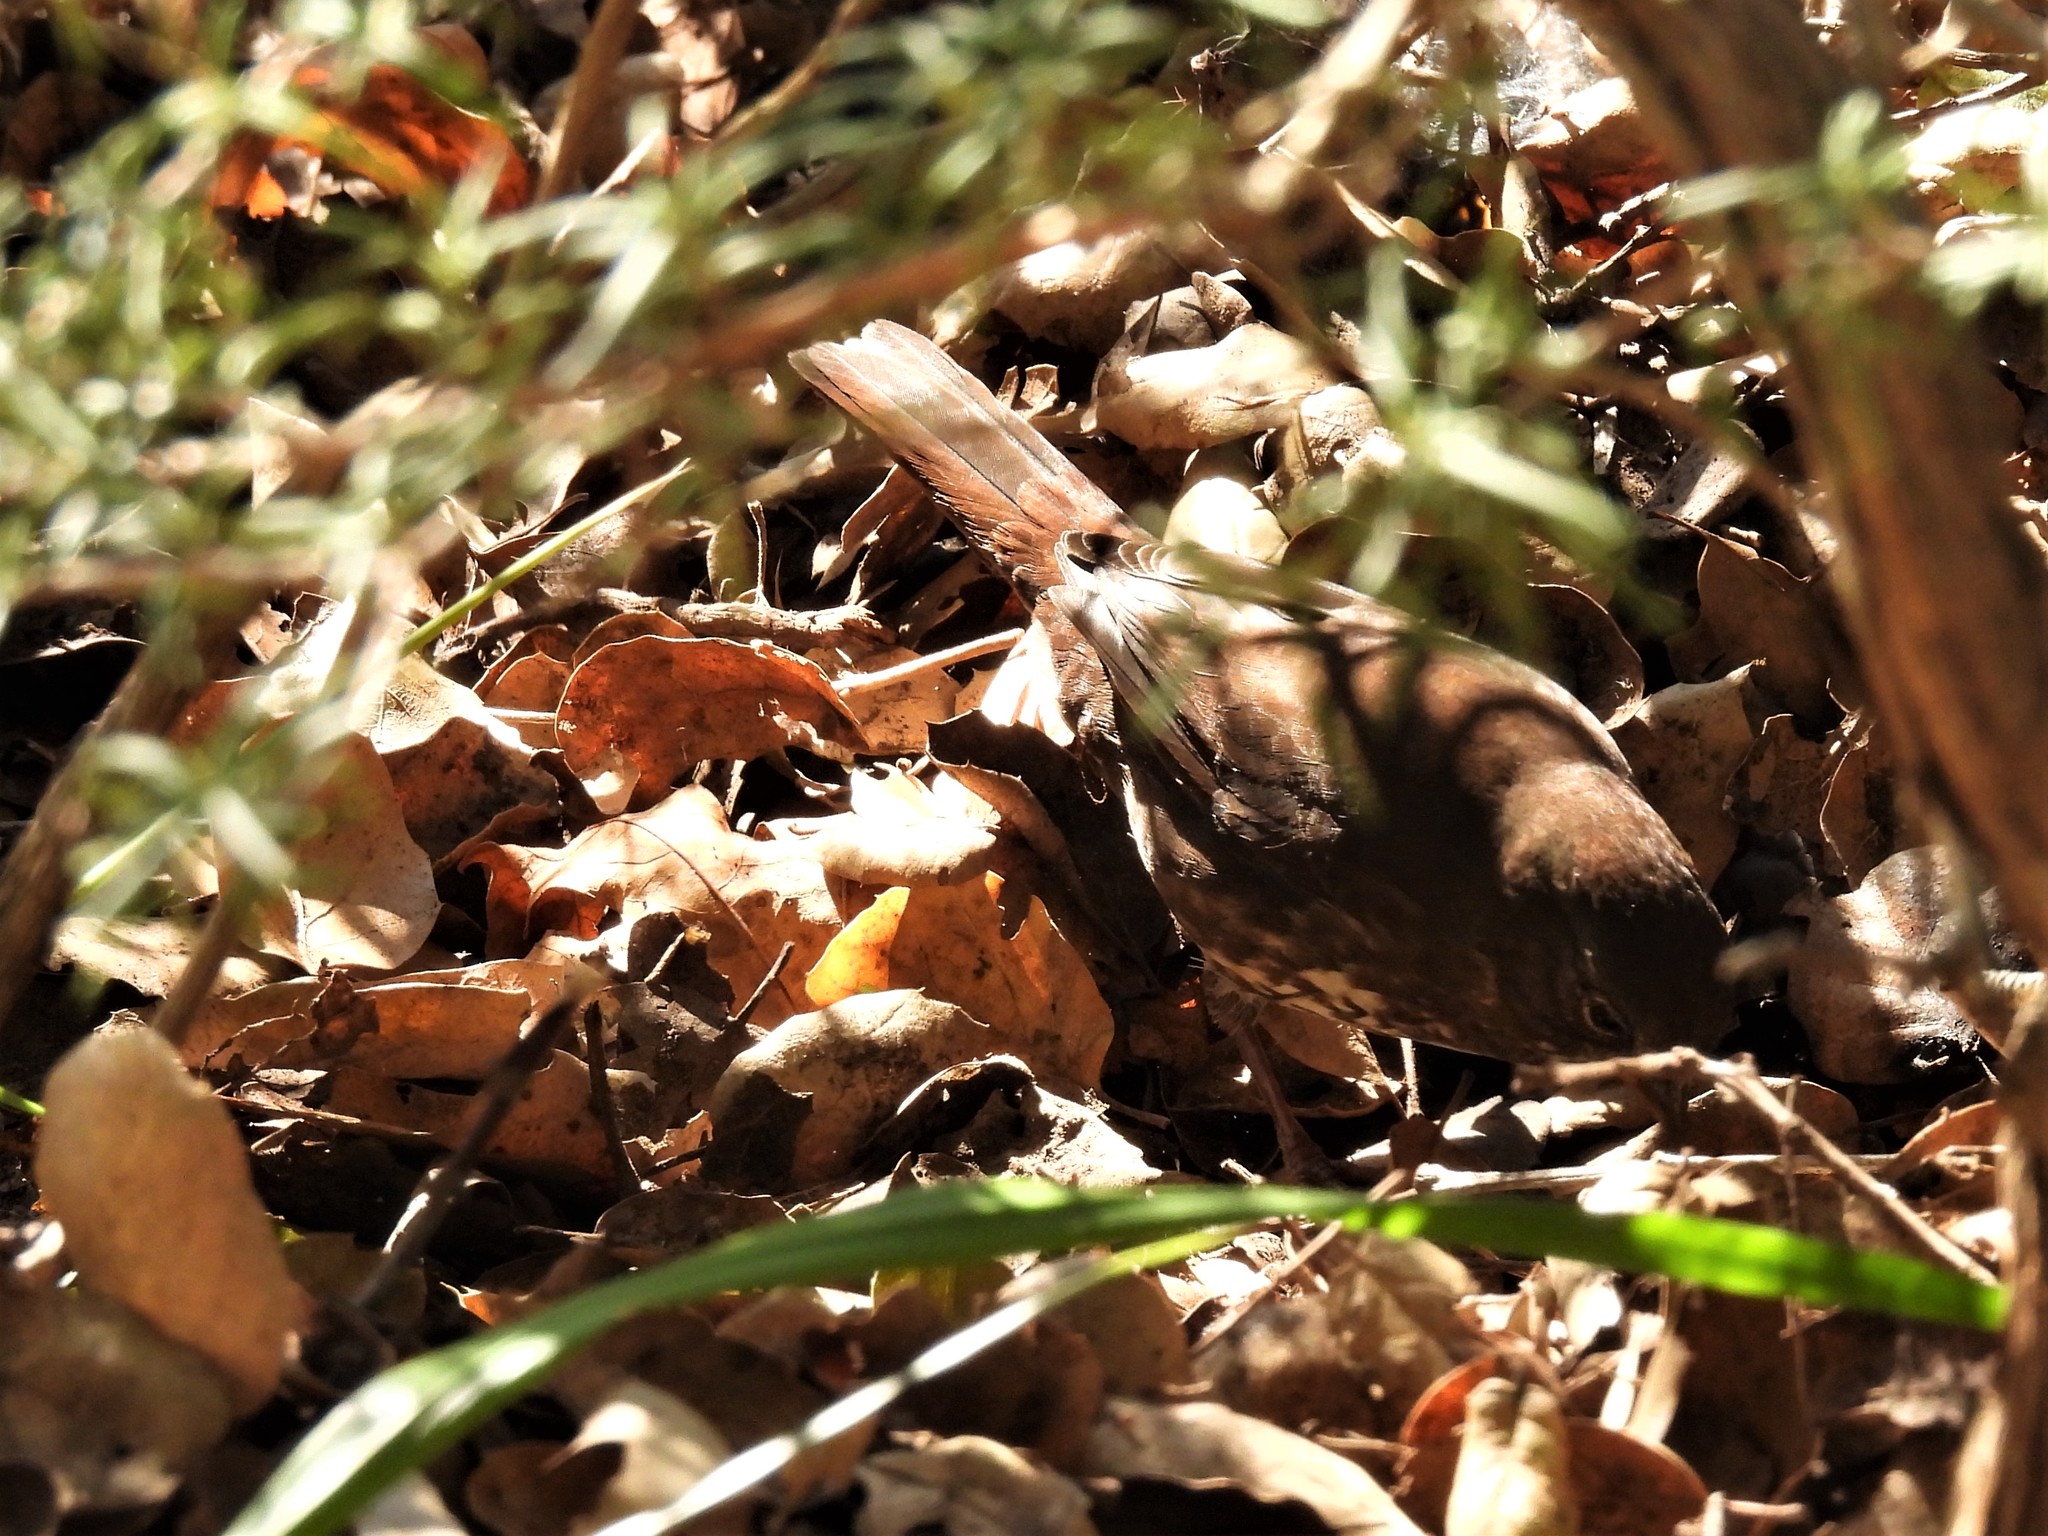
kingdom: Animalia
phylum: Chordata
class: Aves
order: Passeriformes
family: Passerellidae
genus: Passerella
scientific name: Passerella iliaca
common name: Fox sparrow
